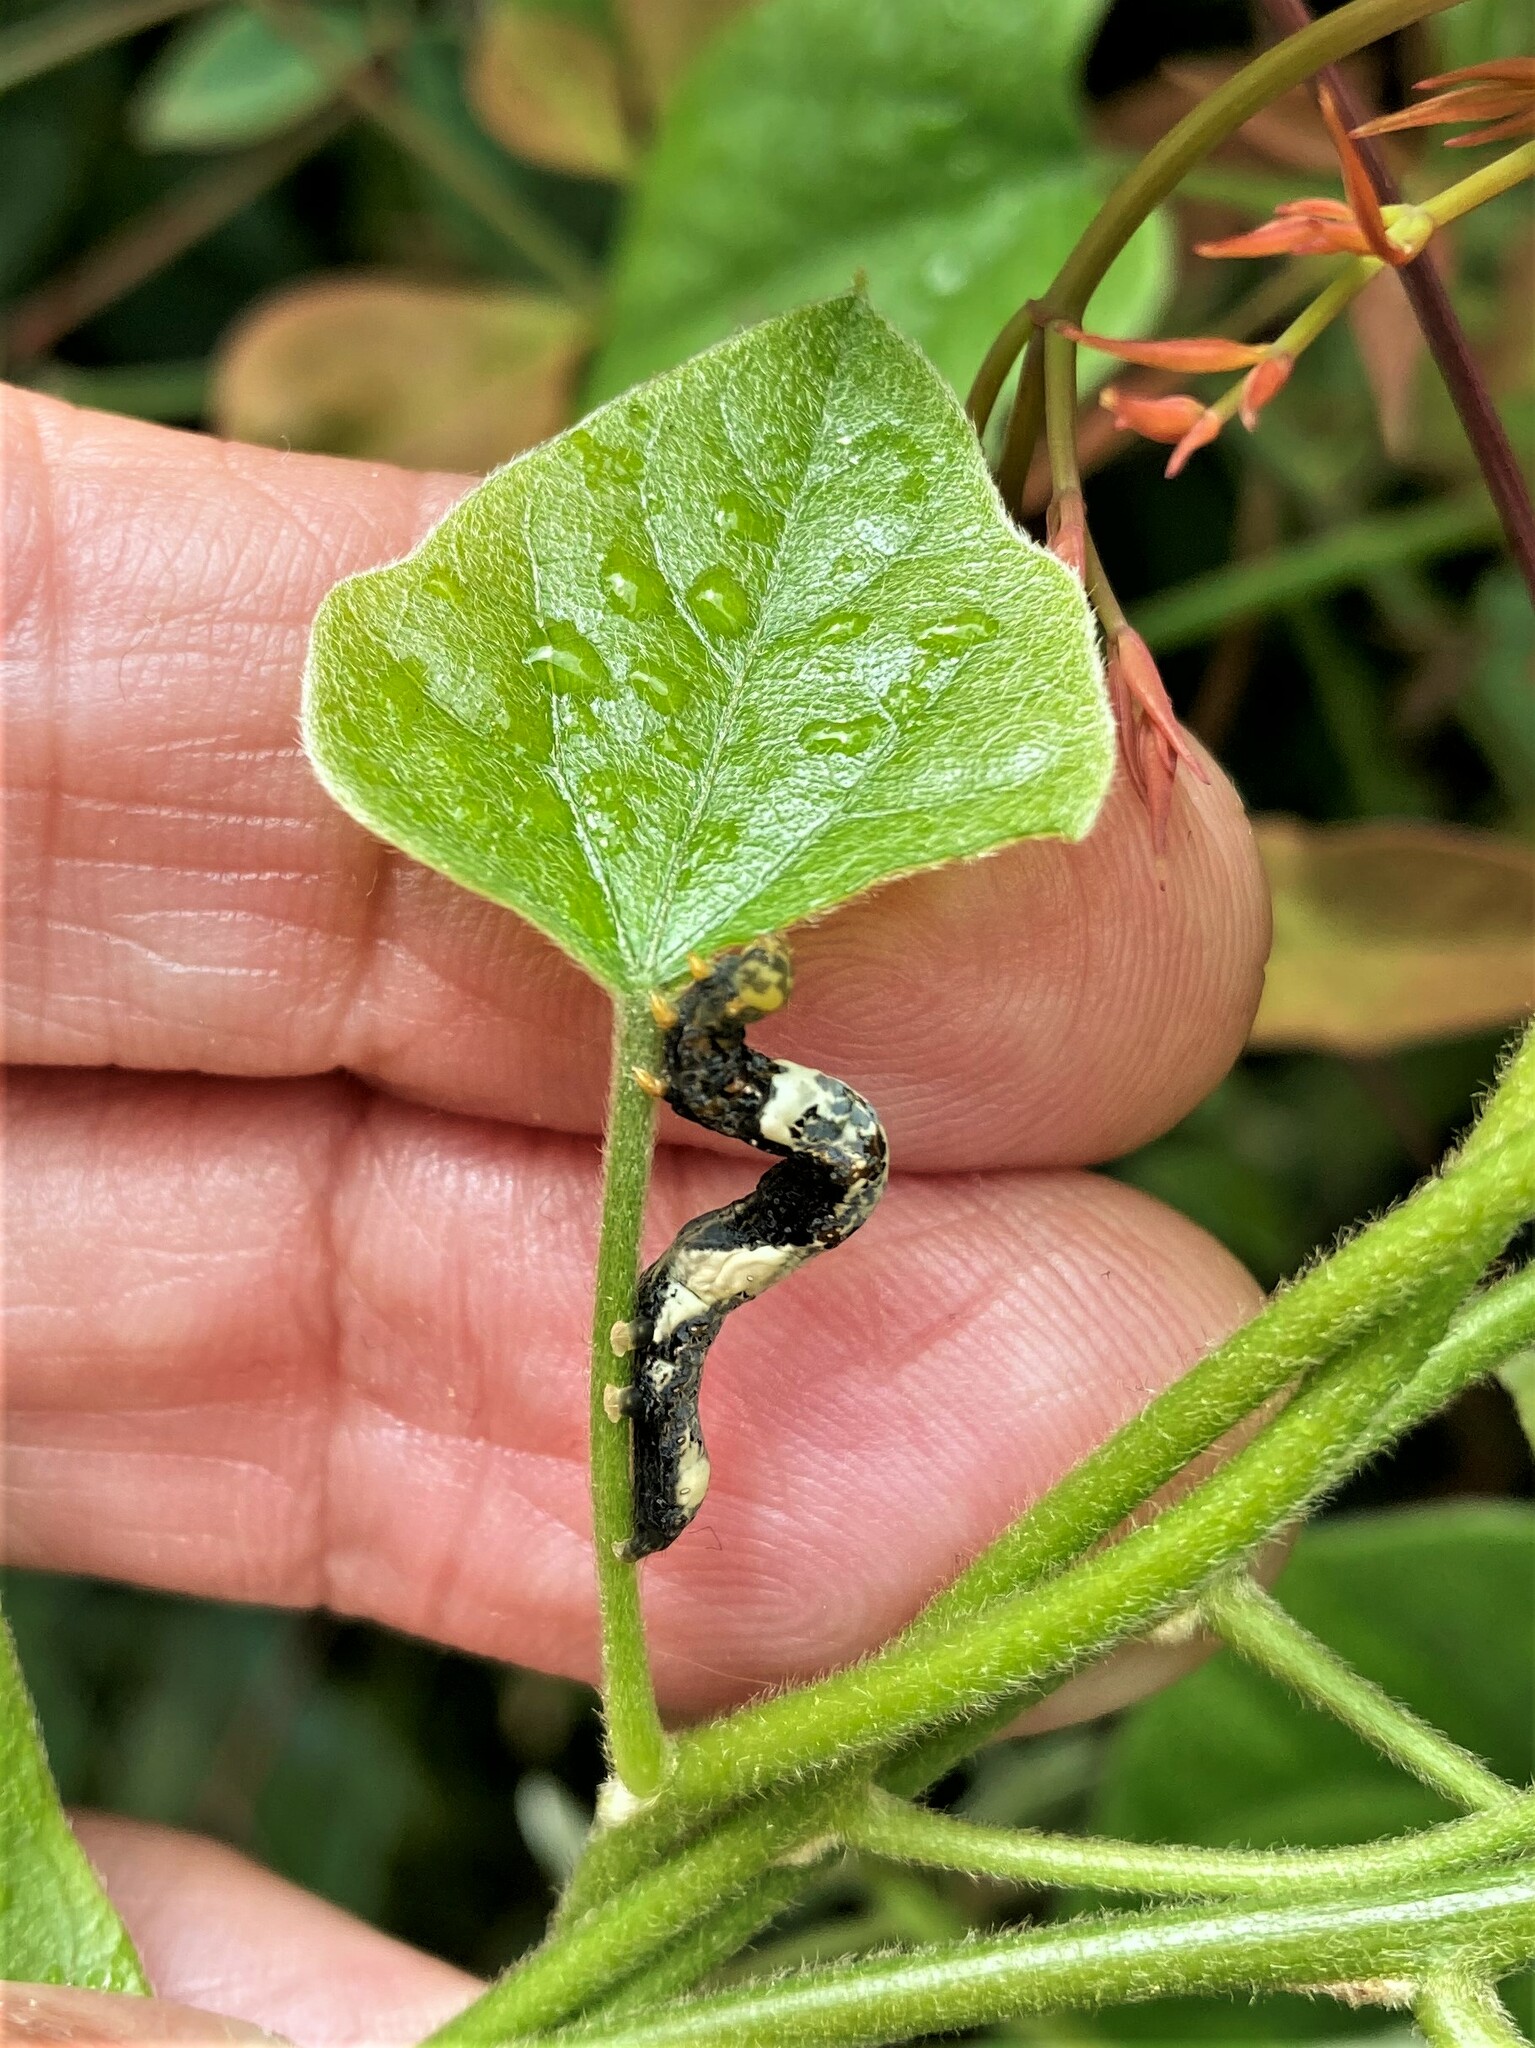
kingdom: Animalia
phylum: Arthropoda
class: Insecta
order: Lepidoptera
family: Erebidae
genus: Plusiodonta
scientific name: Plusiodonta compressipalpis
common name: Moonseed moth
